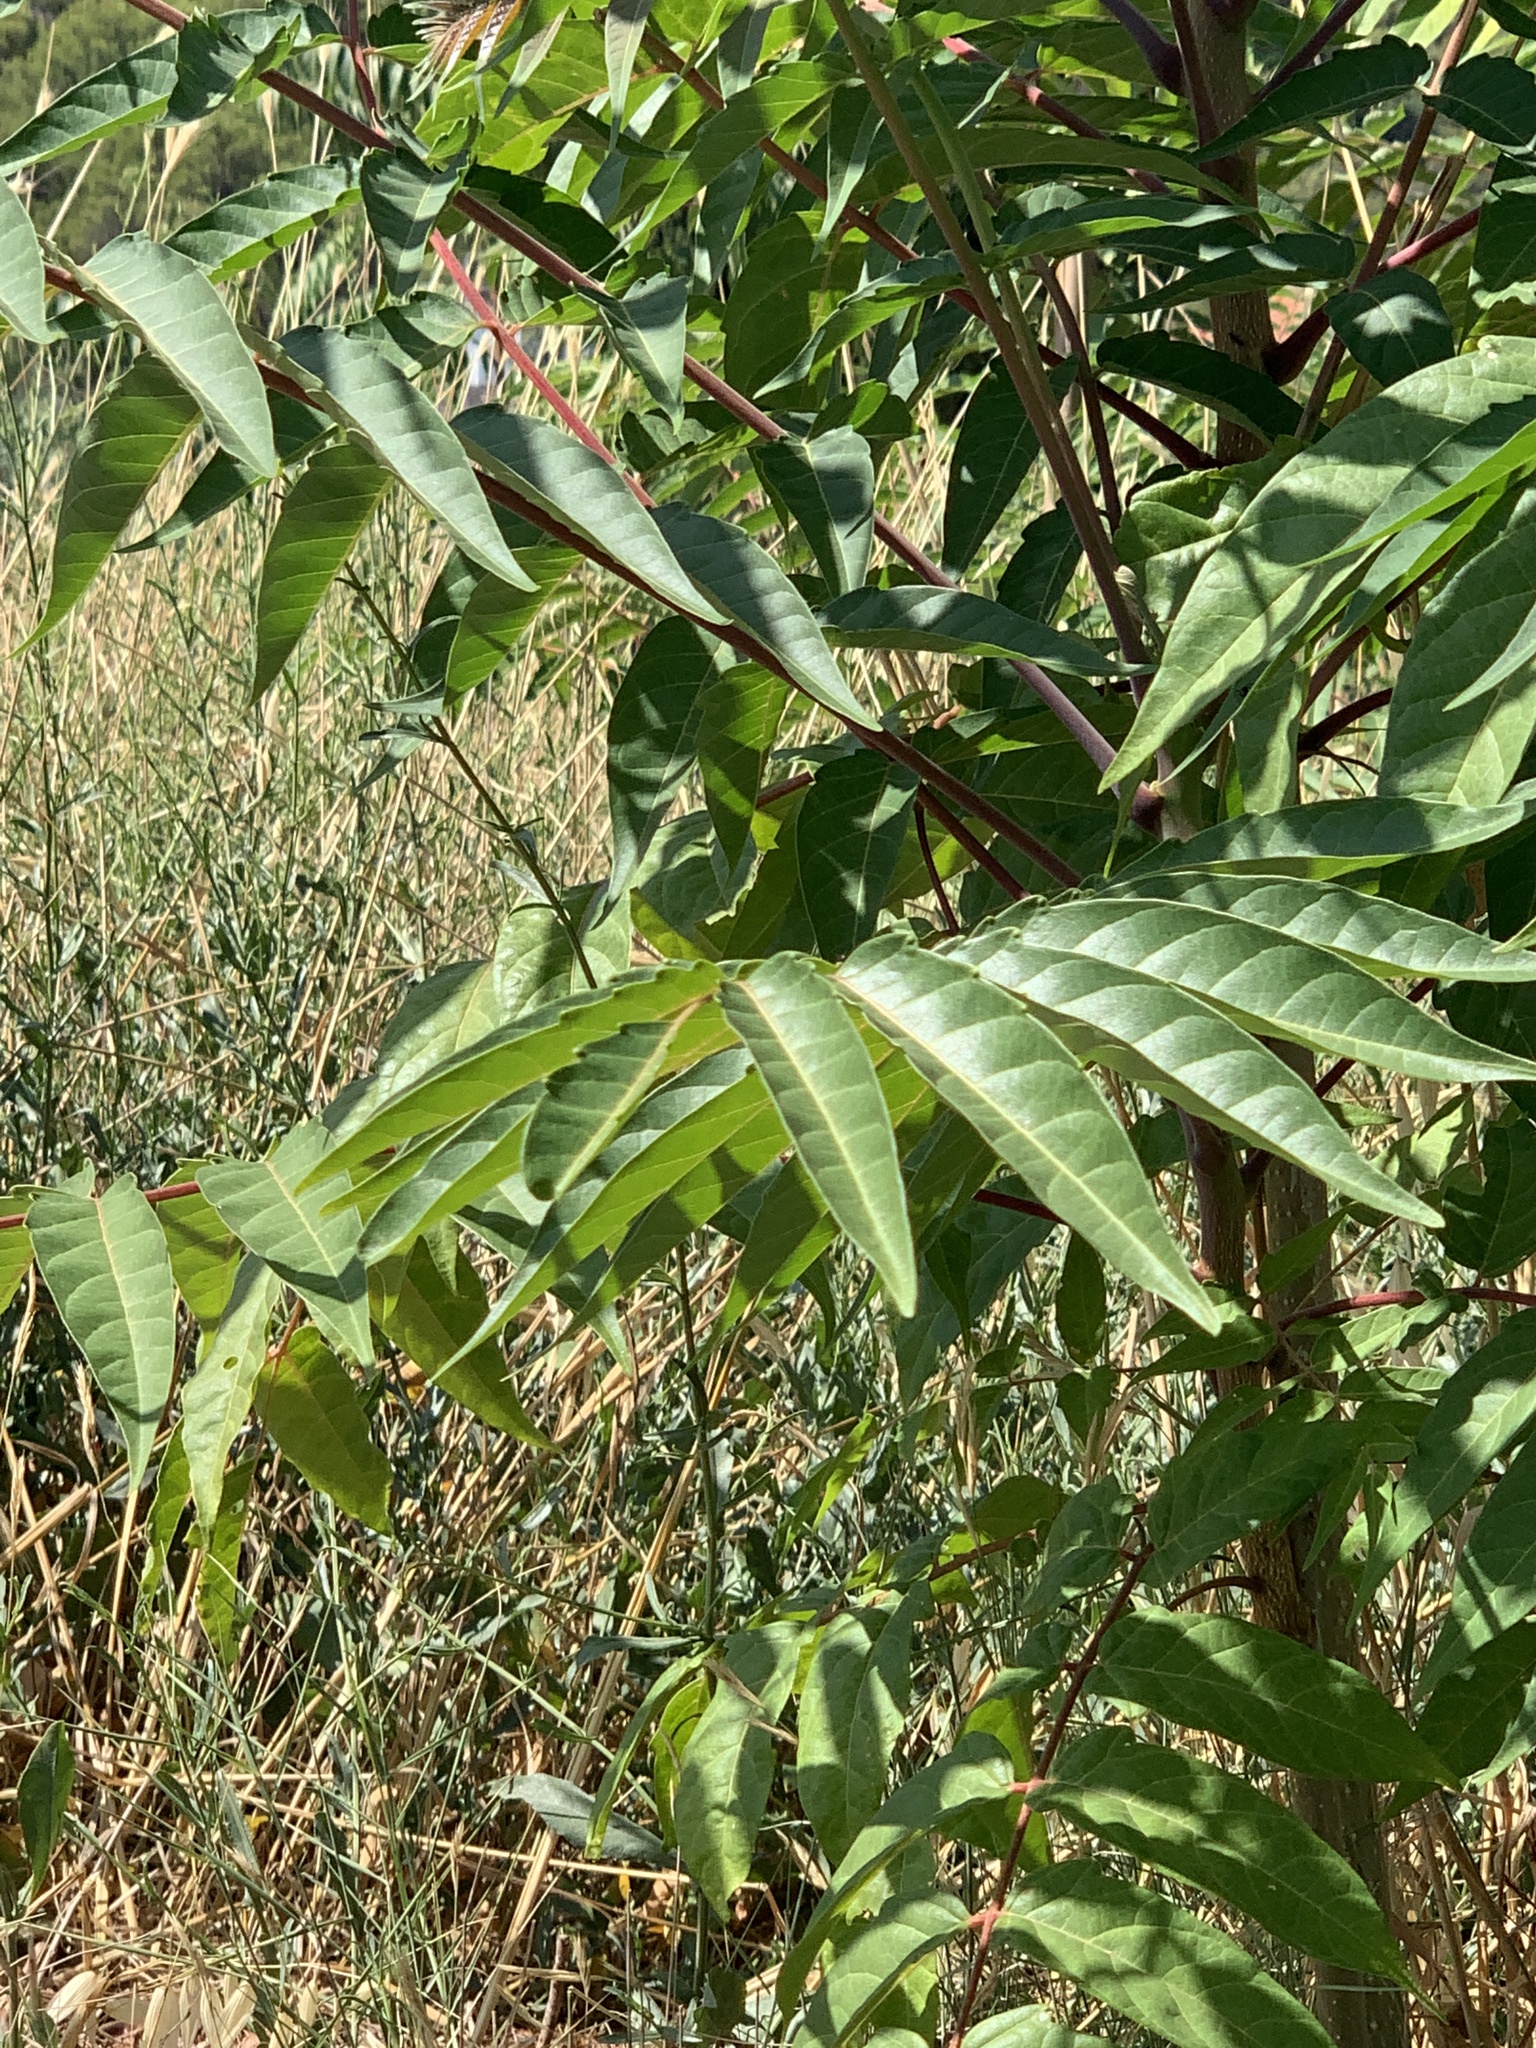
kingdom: Plantae
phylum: Tracheophyta
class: Magnoliopsida
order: Sapindales
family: Simaroubaceae
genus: Ailanthus
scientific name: Ailanthus altissima
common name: Tree-of-heaven
